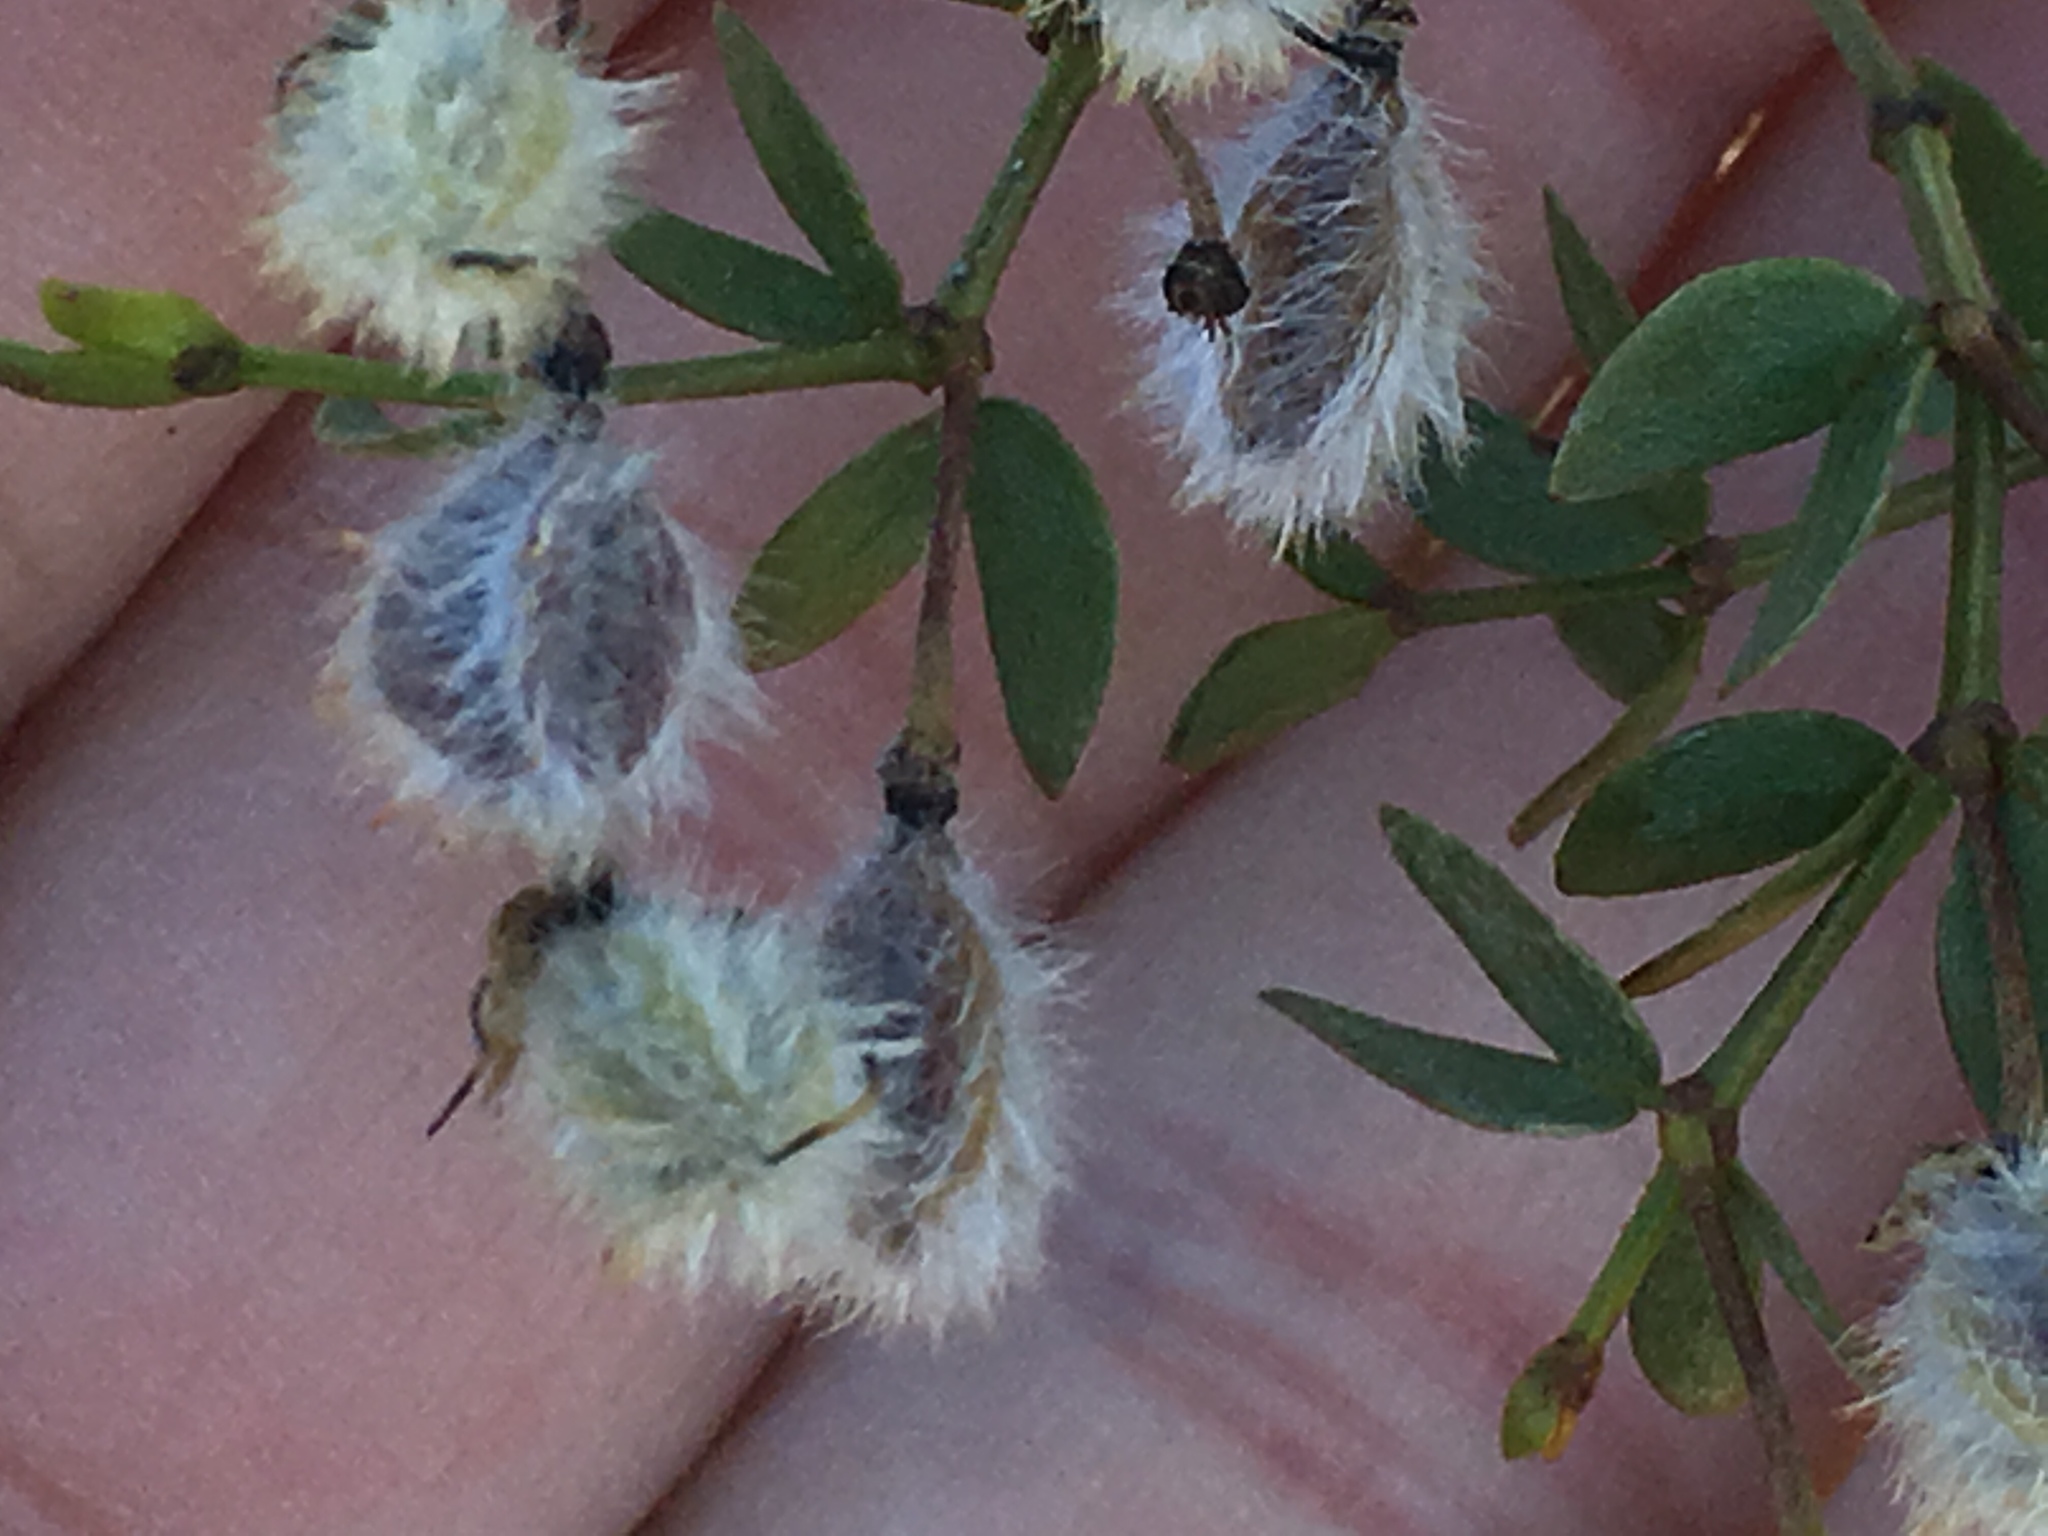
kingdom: Plantae
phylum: Tracheophyta
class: Magnoliopsida
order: Zygophyllales
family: Zygophyllaceae
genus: Larrea
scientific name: Larrea tridentata
